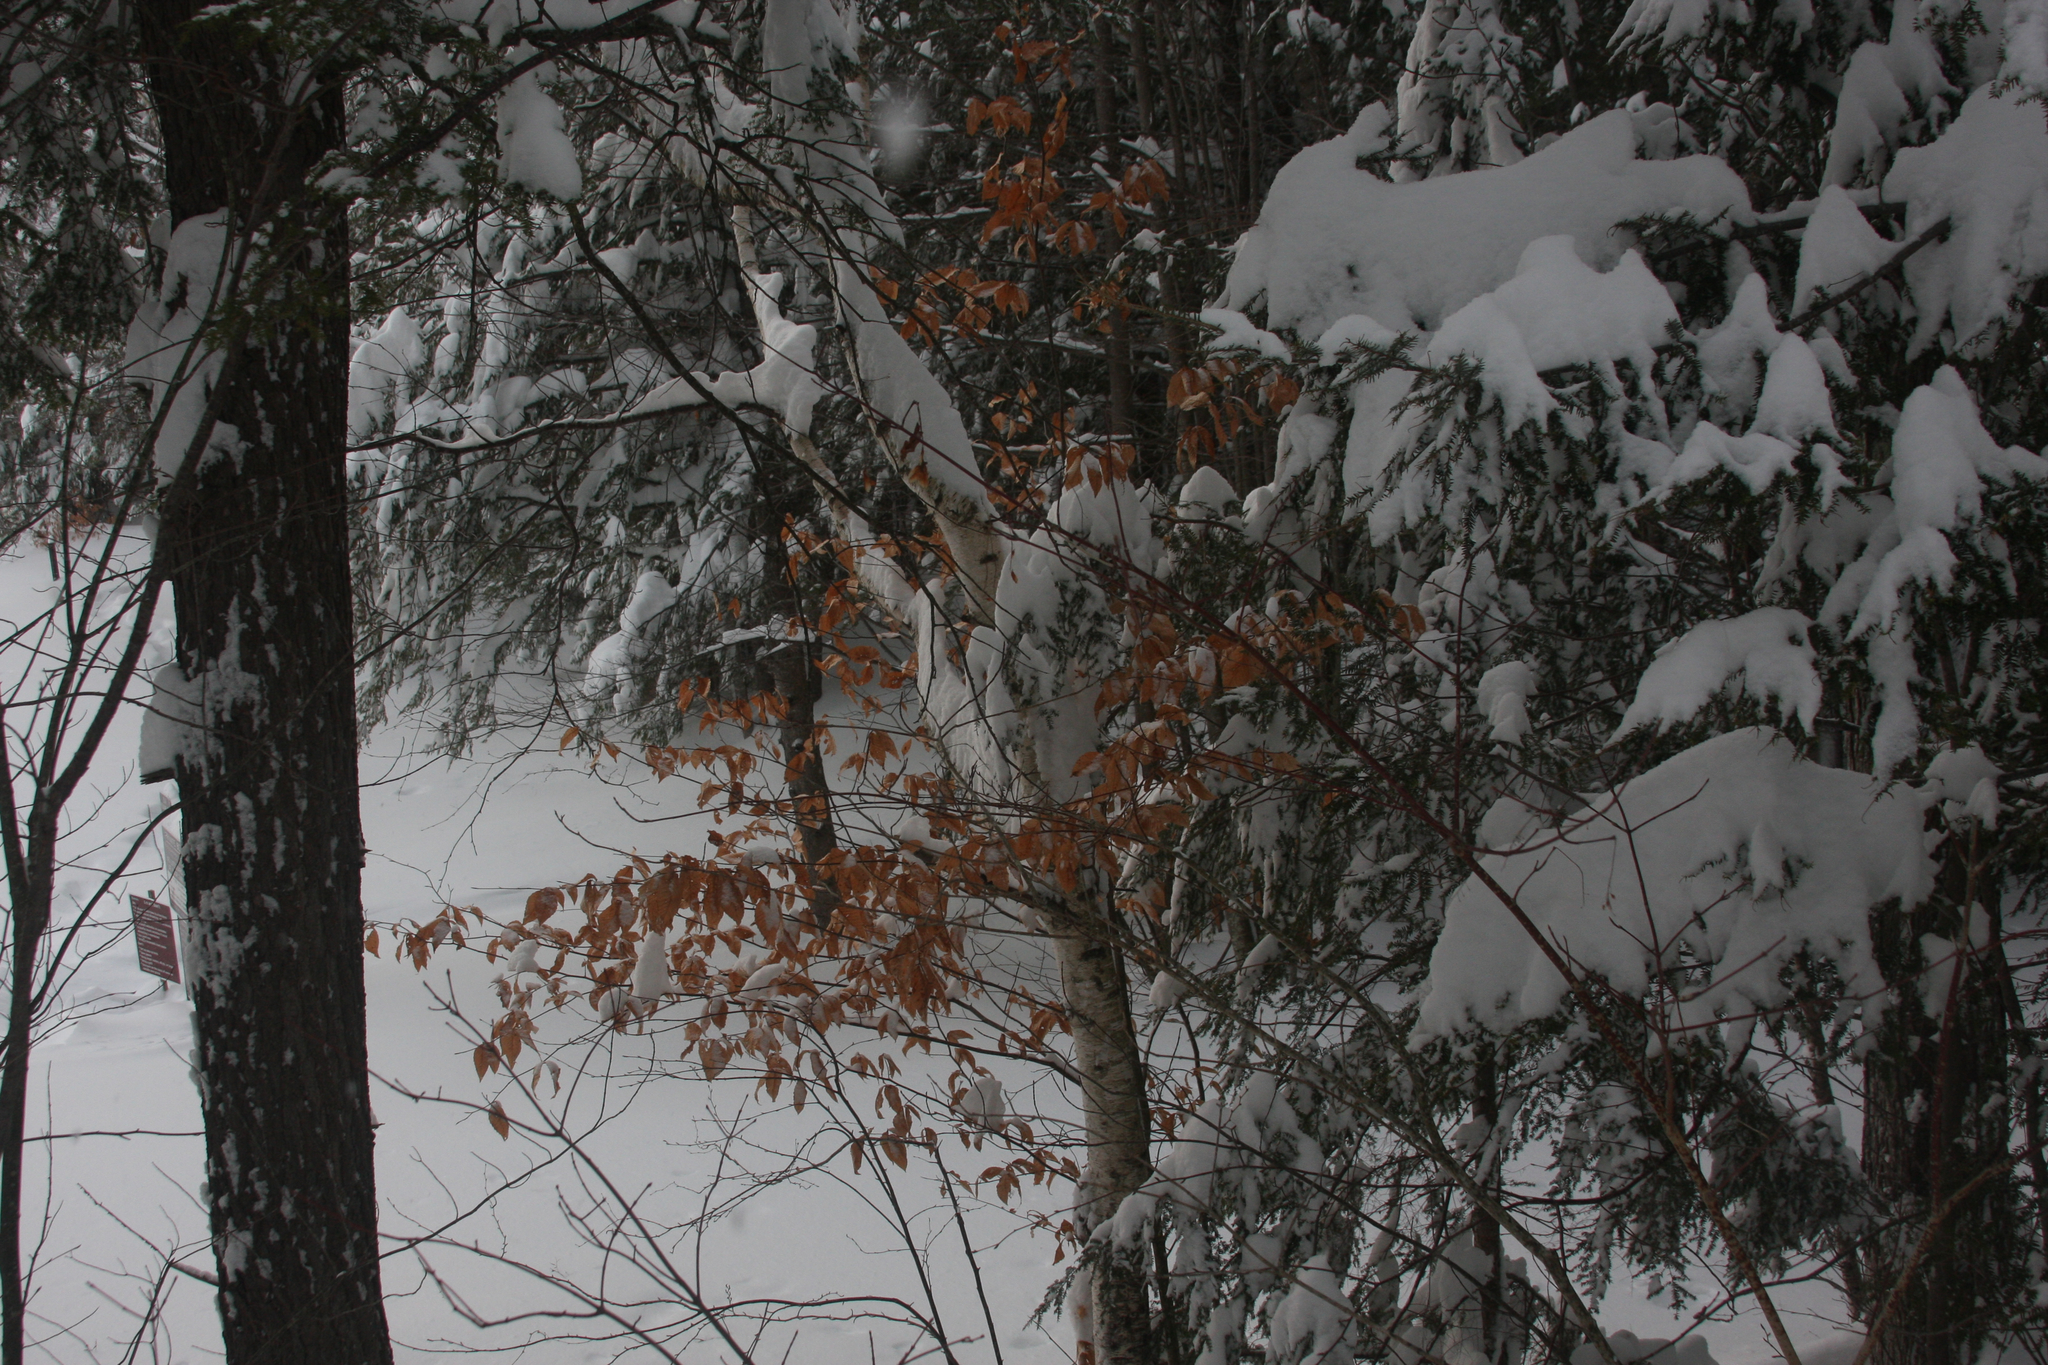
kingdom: Plantae
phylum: Tracheophyta
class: Magnoliopsida
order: Fagales
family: Fagaceae
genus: Fagus
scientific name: Fagus grandifolia
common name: American beech
